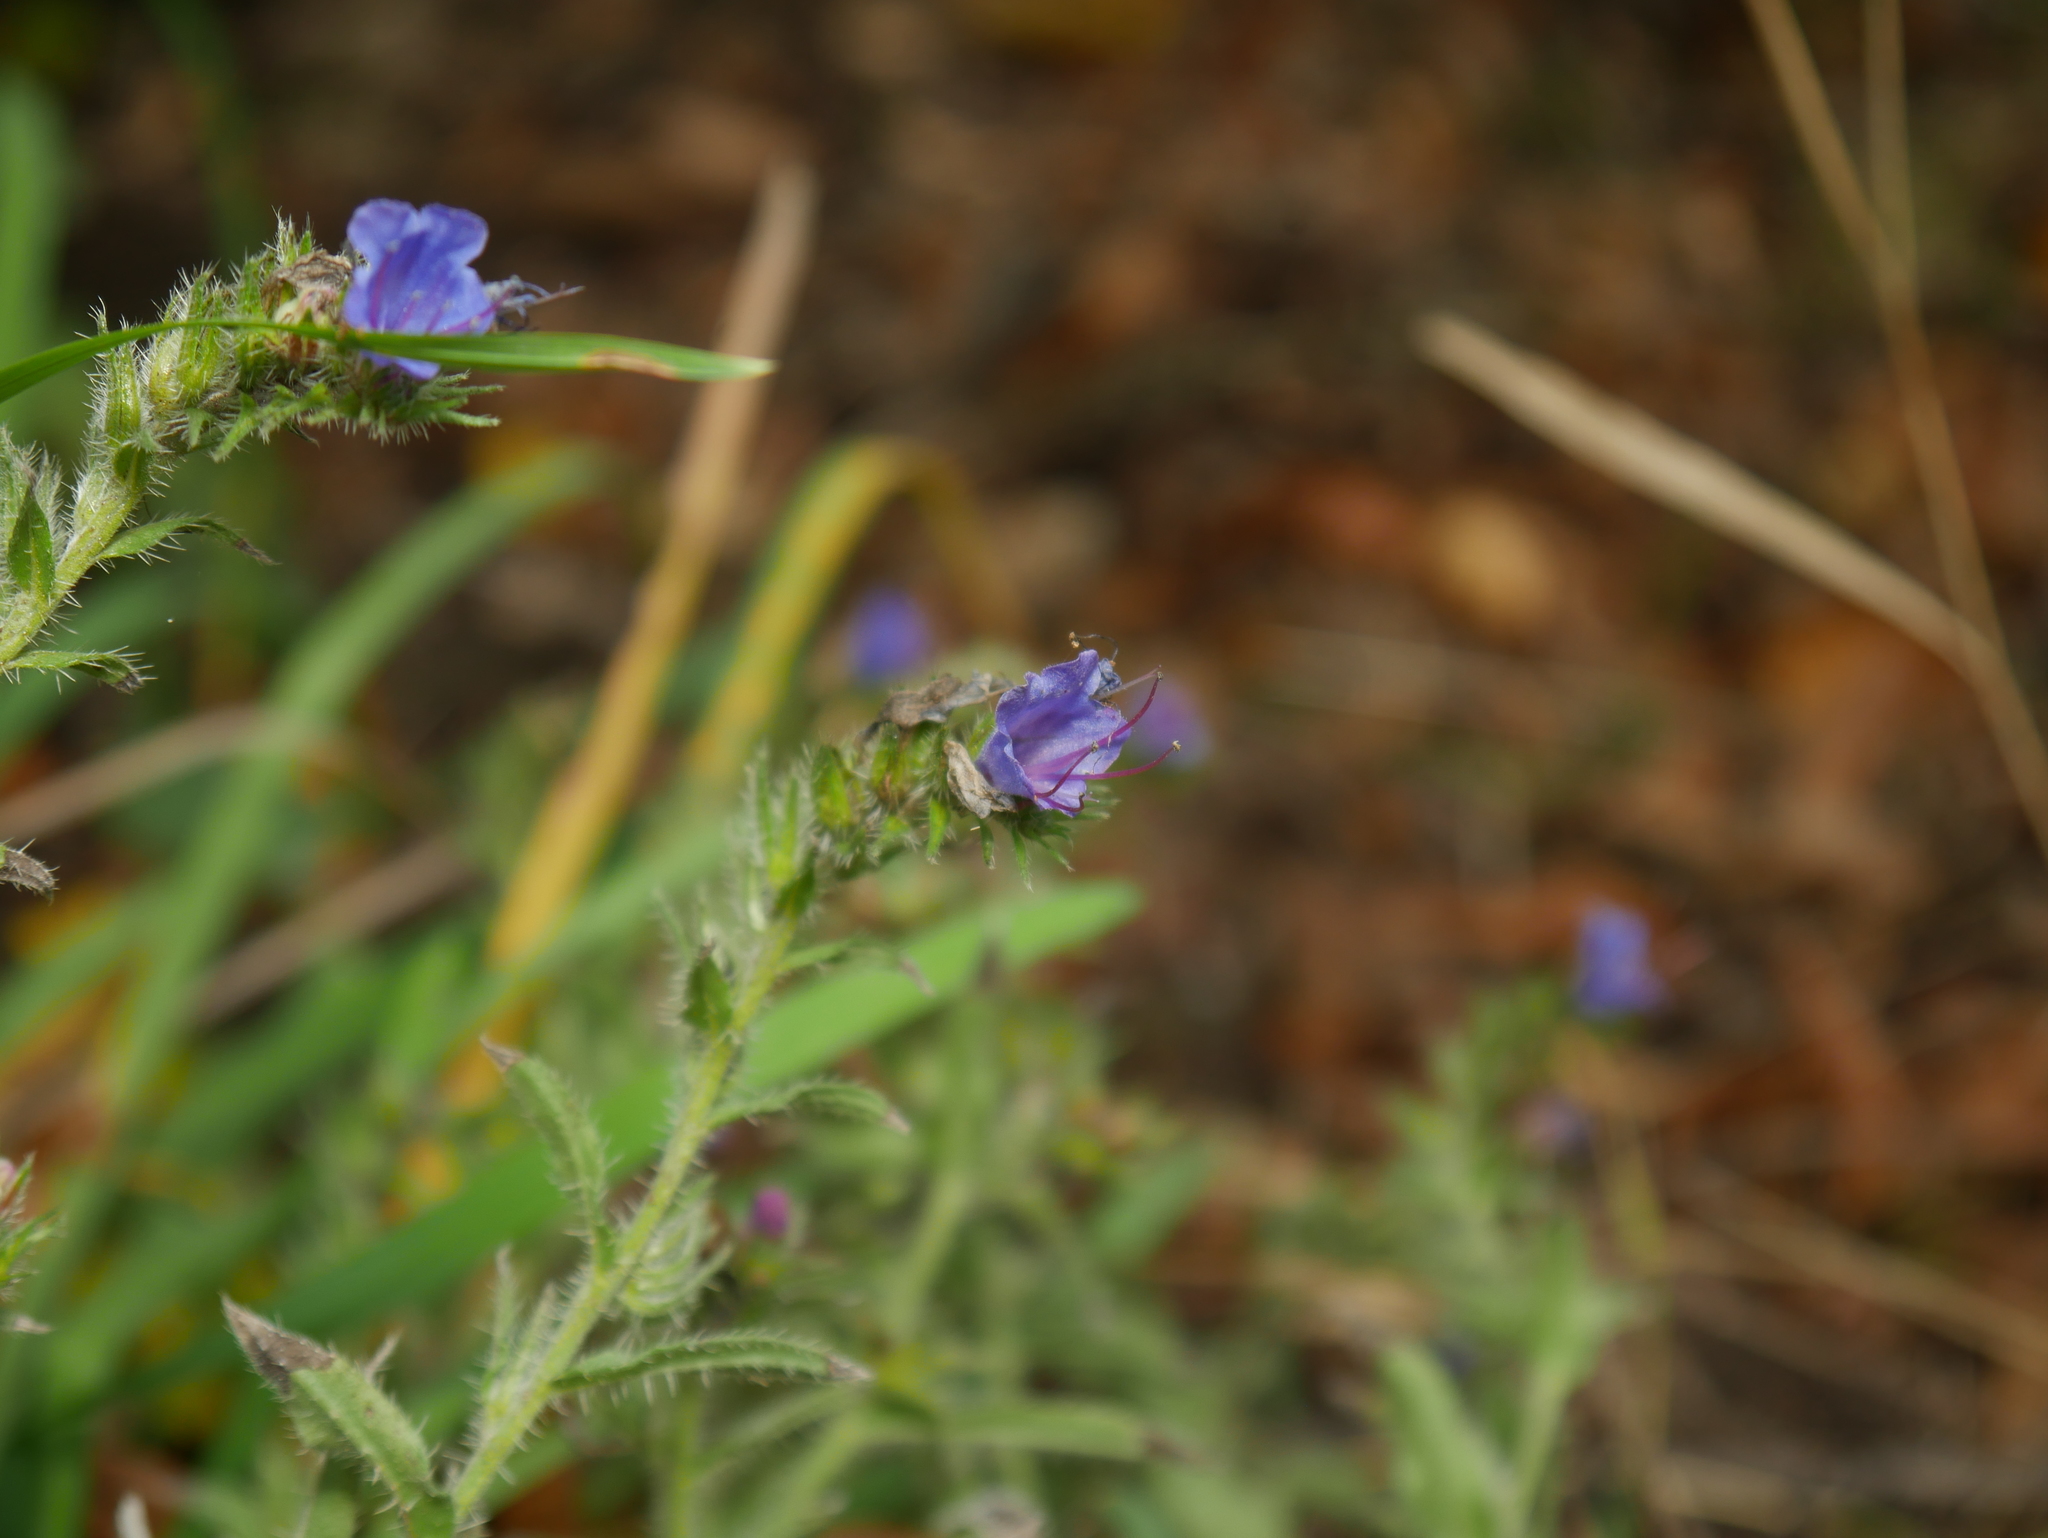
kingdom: Plantae
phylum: Tracheophyta
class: Magnoliopsida
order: Boraginales
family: Boraginaceae
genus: Echium
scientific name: Echium vulgare
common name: Common viper's bugloss
